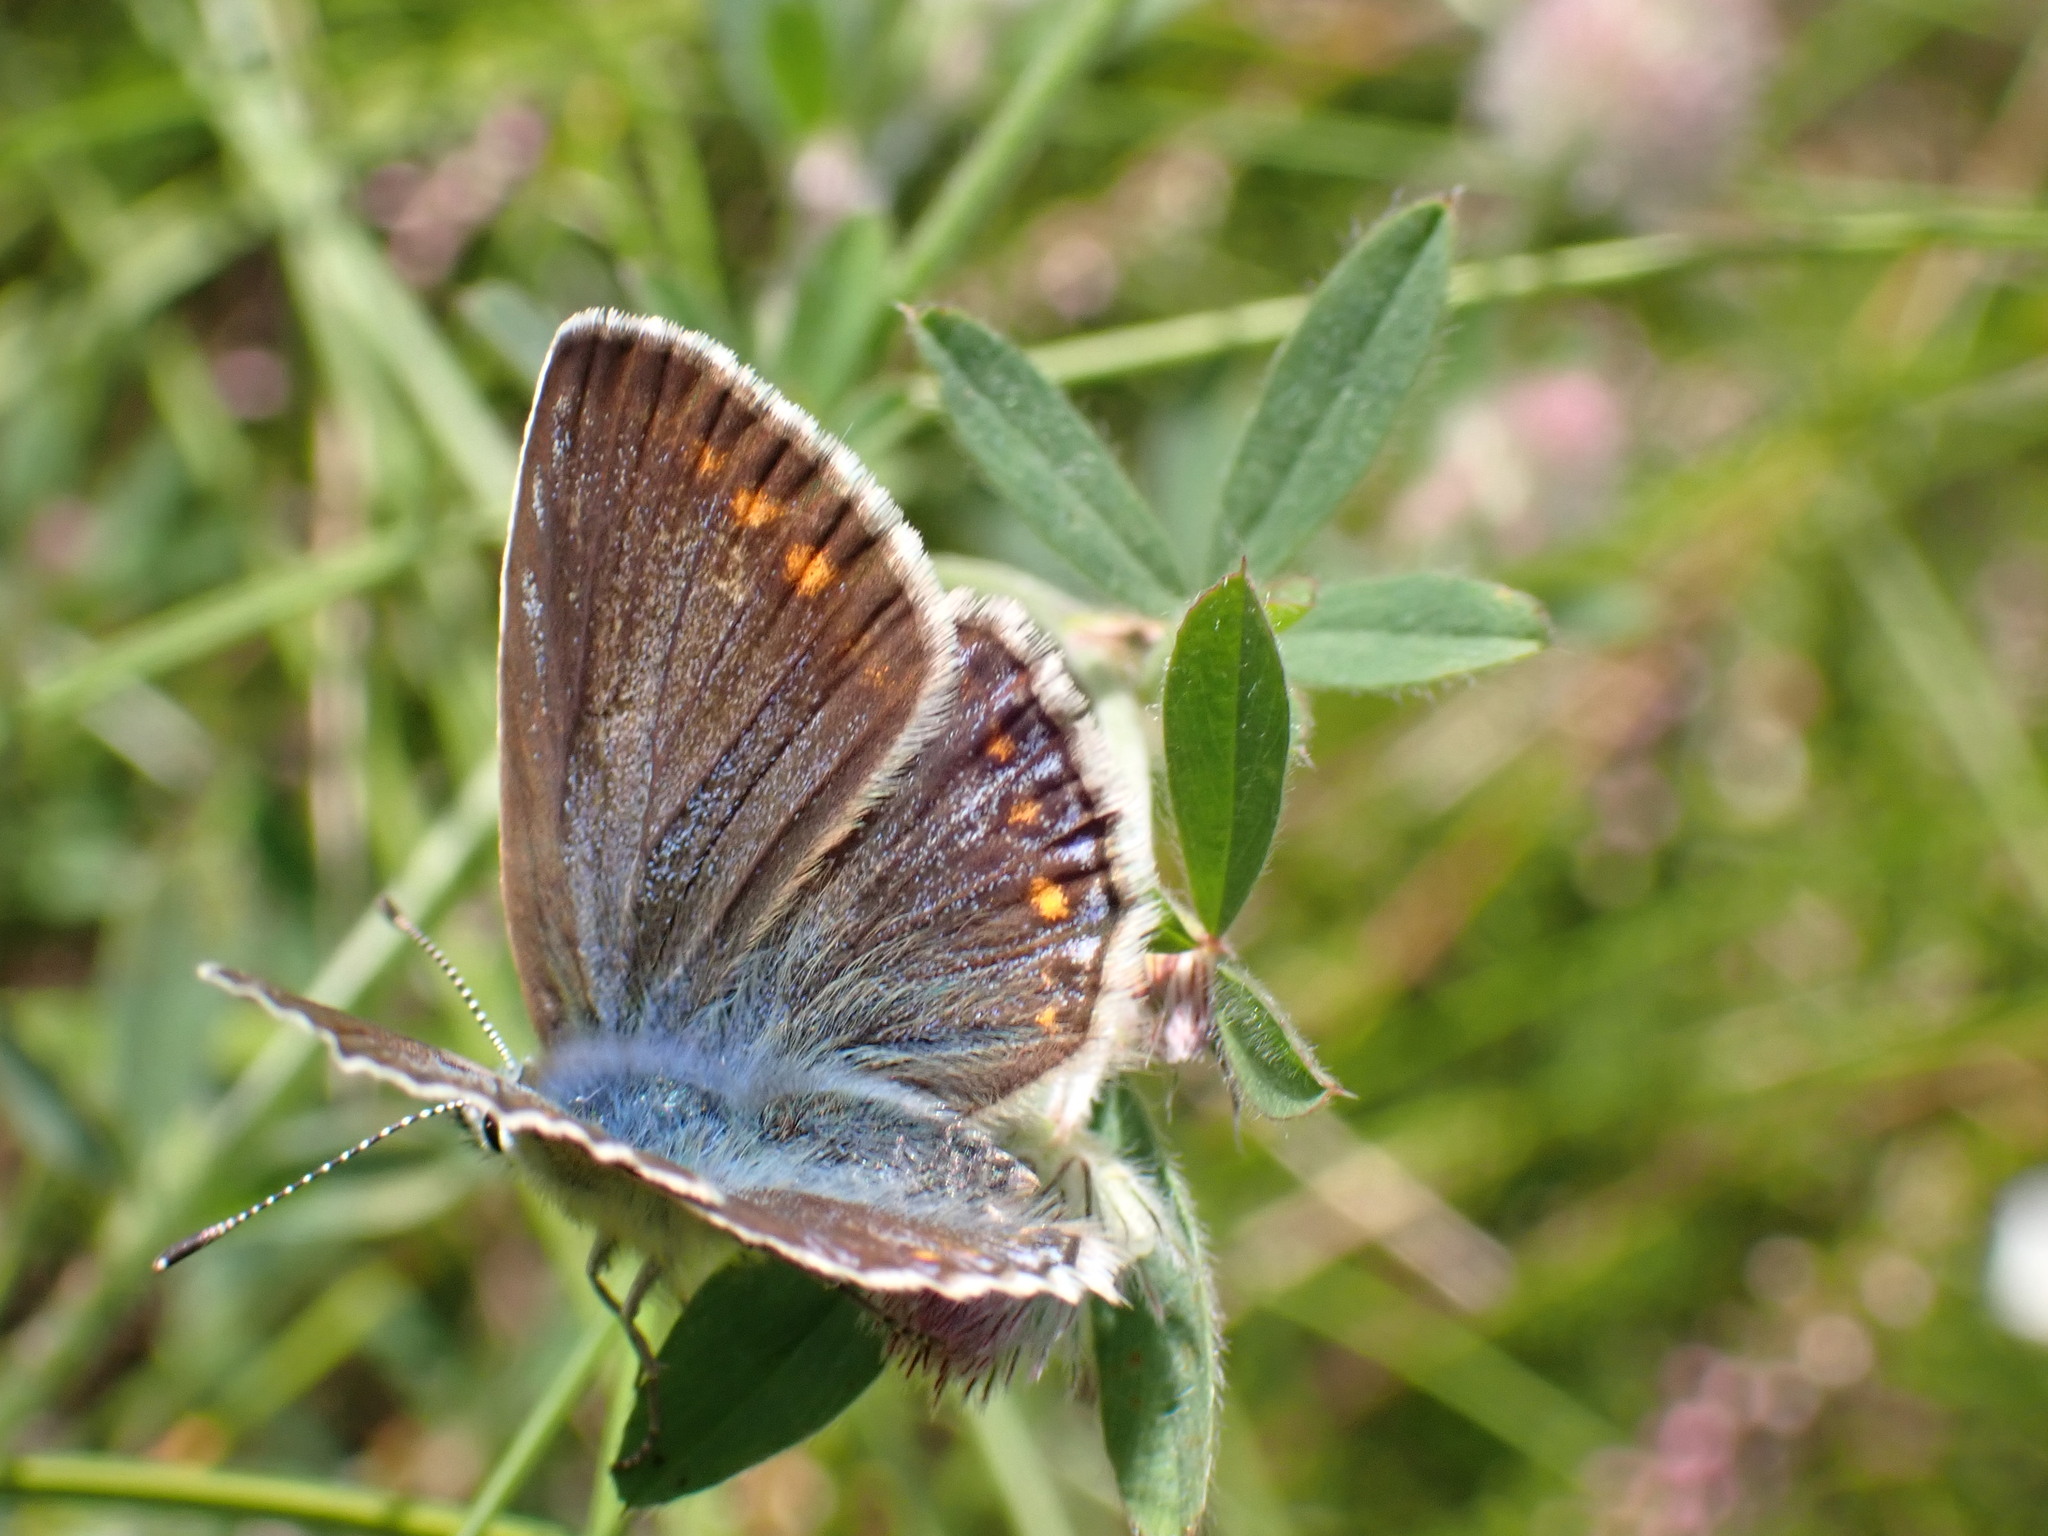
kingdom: Animalia
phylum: Arthropoda
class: Insecta
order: Lepidoptera
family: Lycaenidae
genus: Polyommatus
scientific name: Polyommatus icarus
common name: Common blue
